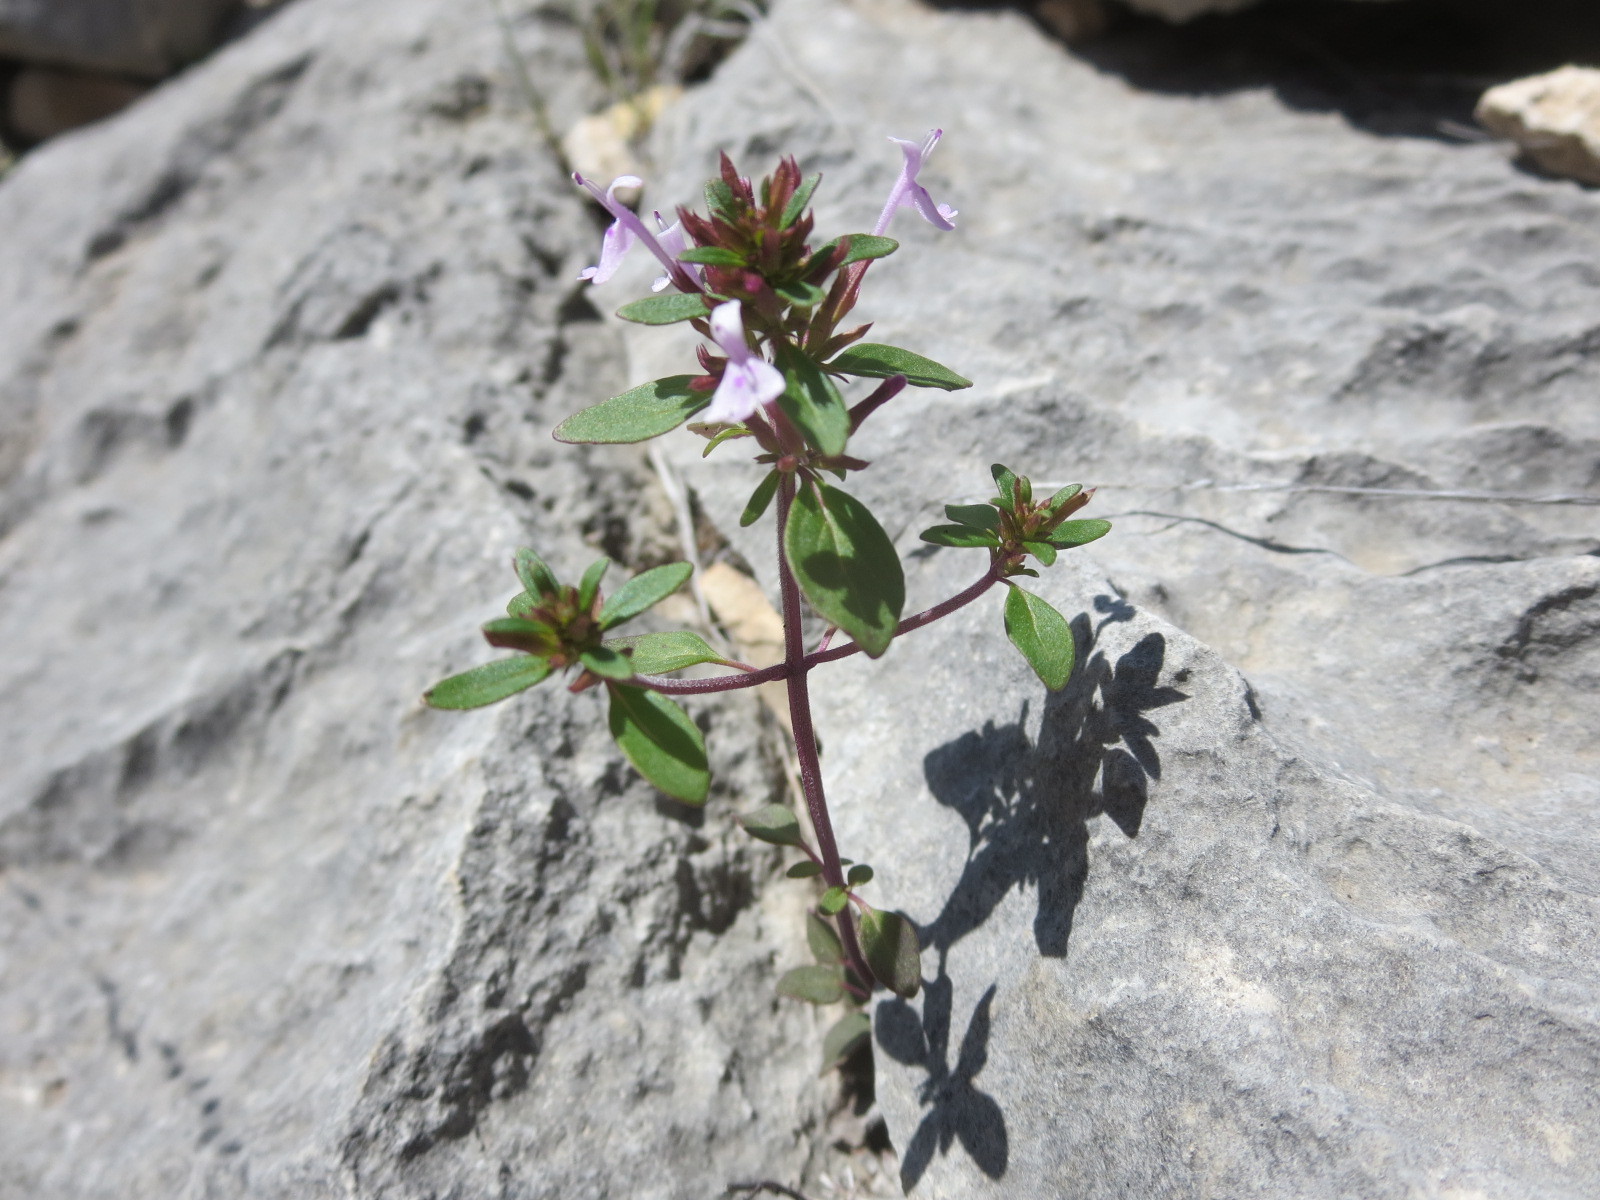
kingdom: Plantae
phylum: Tracheophyta
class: Magnoliopsida
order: Lamiales
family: Lamiaceae
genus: Hedeoma
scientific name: Hedeoma acinoides
